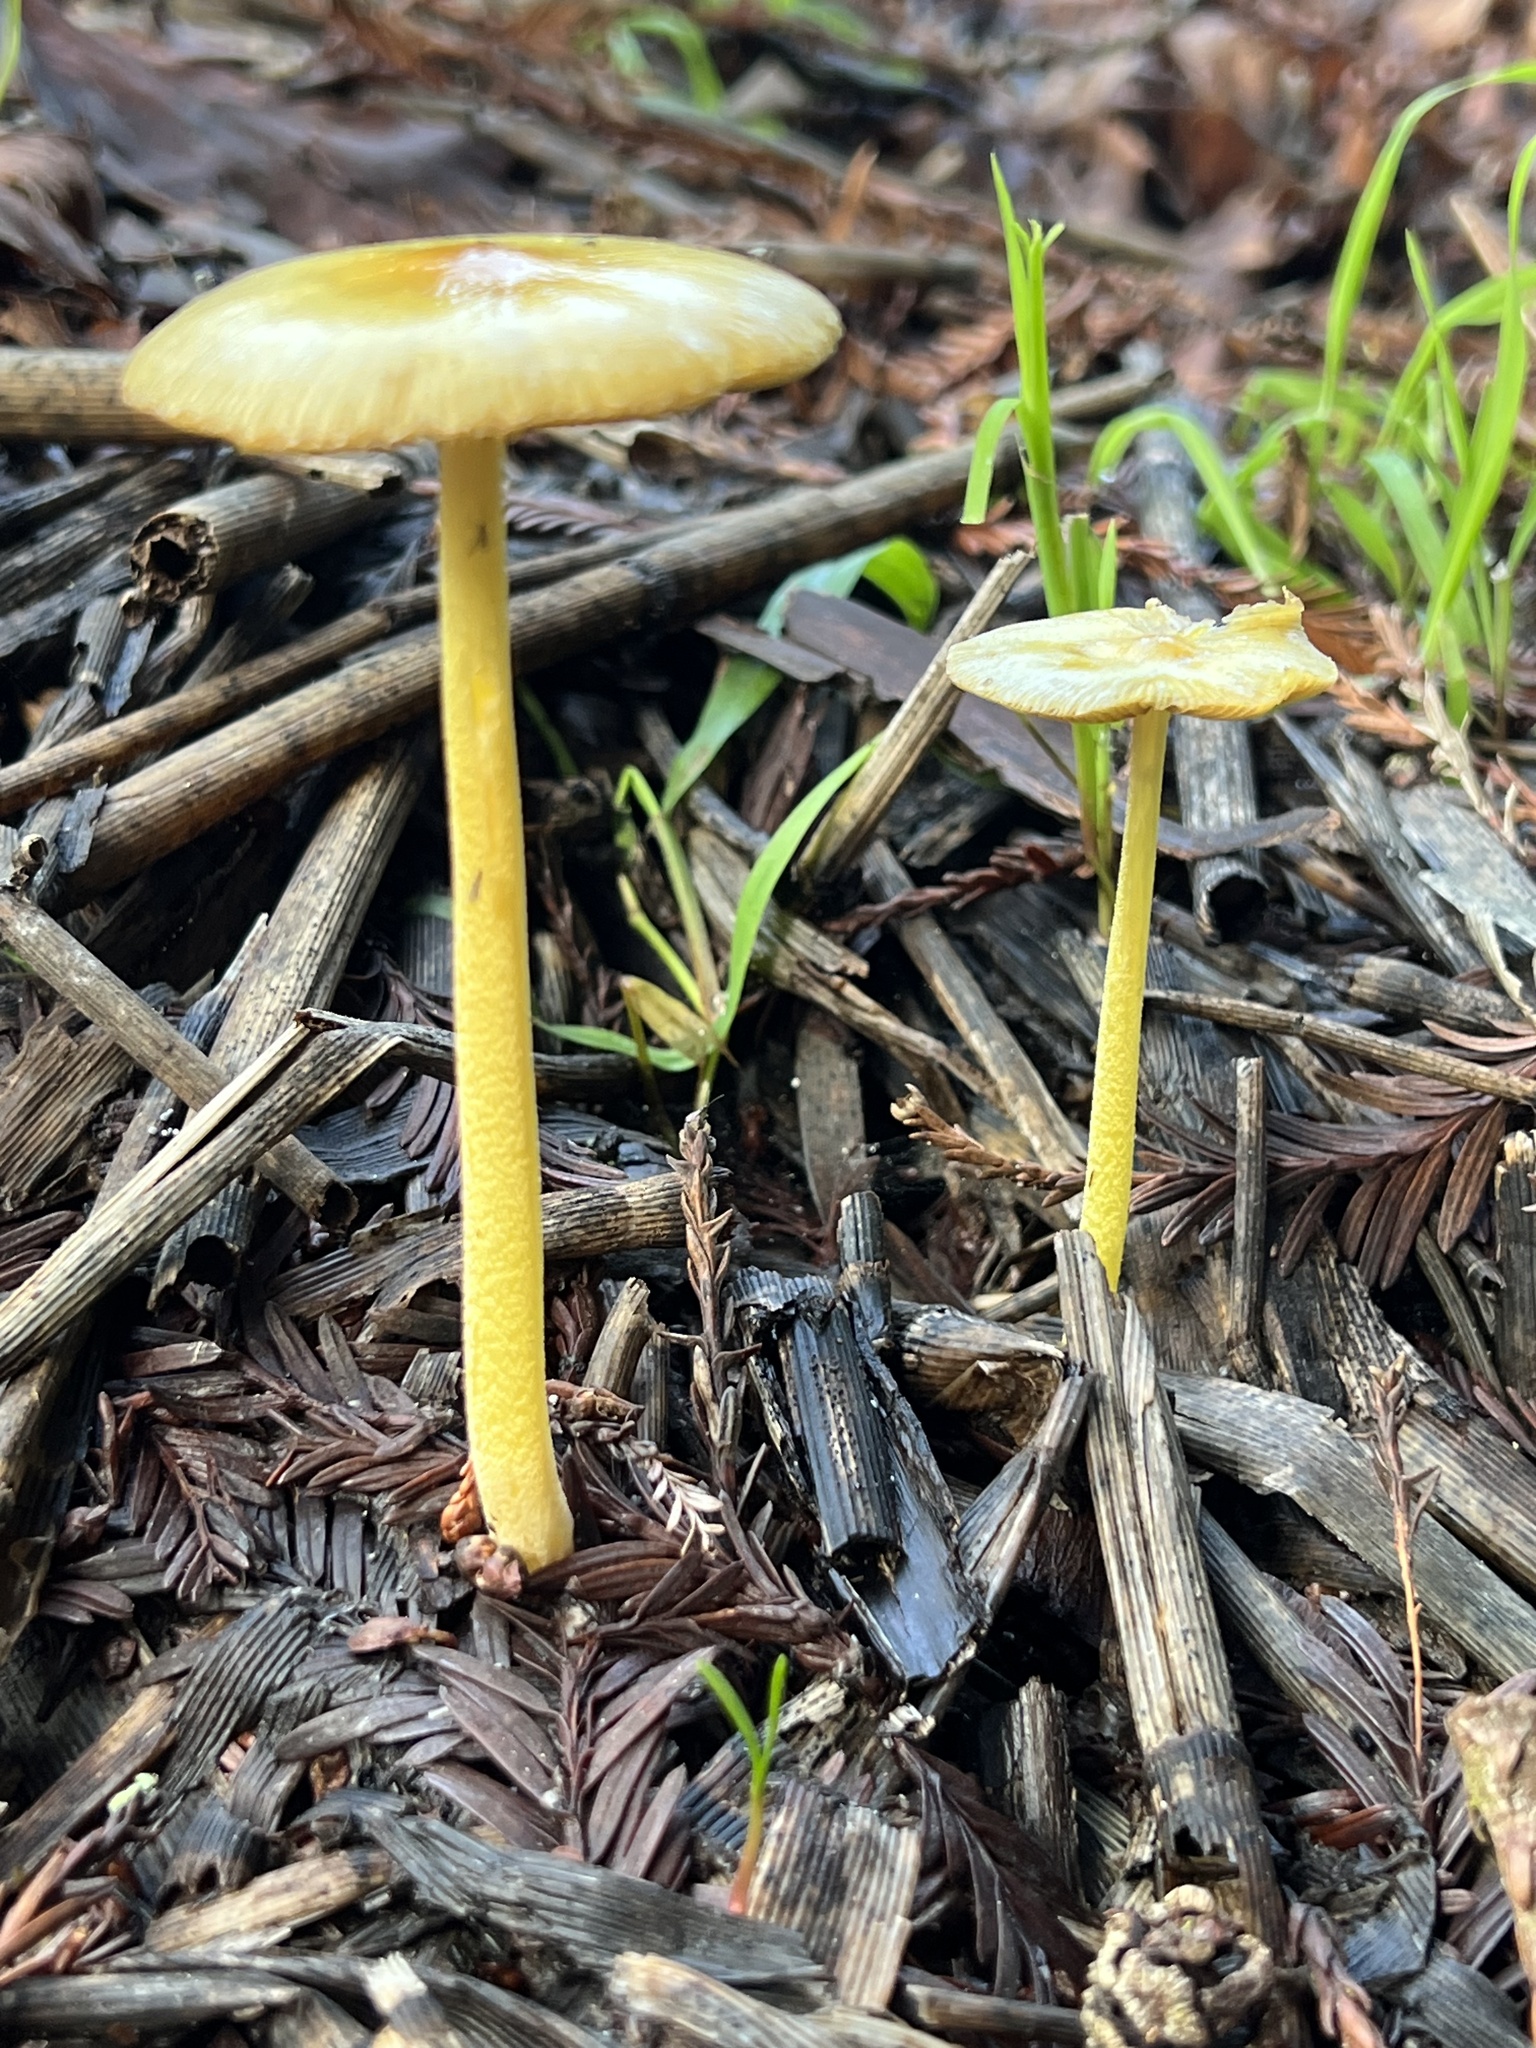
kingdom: Fungi
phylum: Basidiomycota
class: Agaricomycetes
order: Agaricales
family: Bolbitiaceae
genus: Bolbitius
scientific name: Bolbitius titubans
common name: Yellow fieldcap
